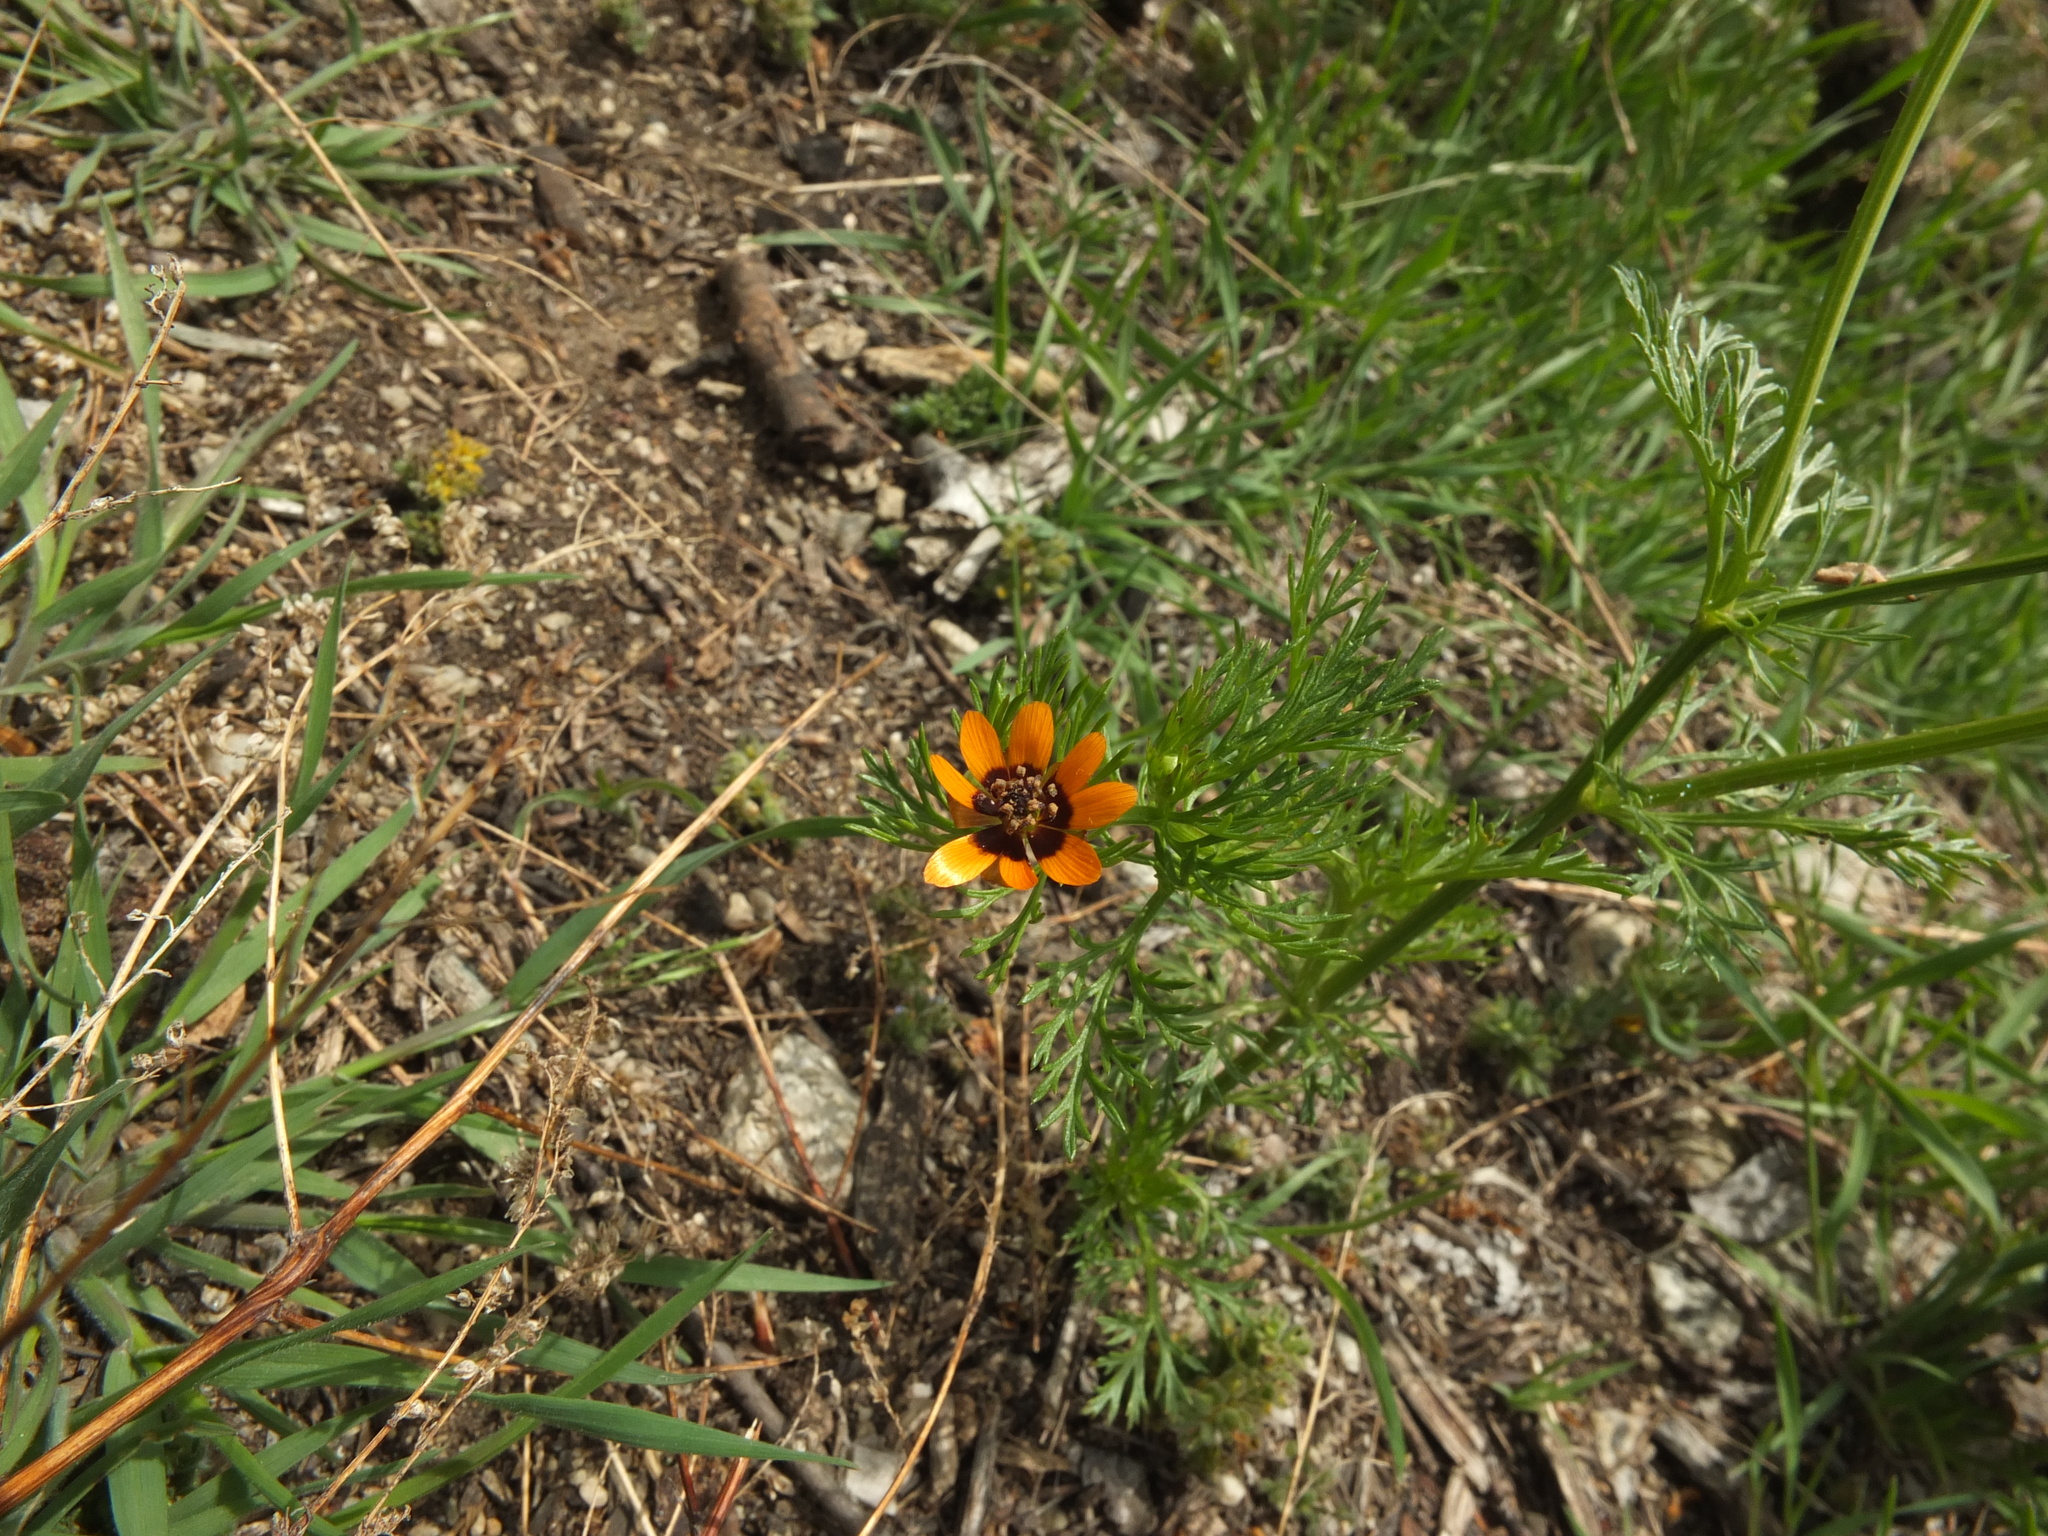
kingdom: Plantae
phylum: Tracheophyta
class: Magnoliopsida
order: Ranunculales
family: Ranunculaceae
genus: Adonis
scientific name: Adonis aestivalis
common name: Summer pheasant's-eye
